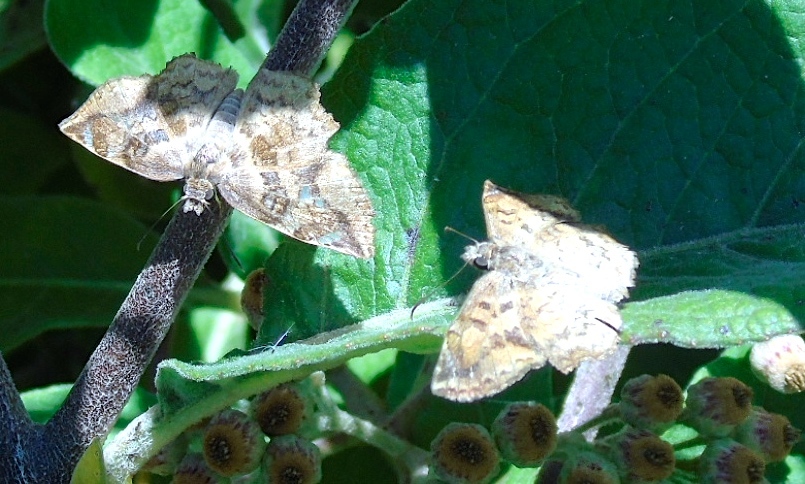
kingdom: Animalia
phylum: Arthropoda
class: Insecta
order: Lepidoptera
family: Hesperiidae
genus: Antigonus
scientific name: Antigonus erosus
